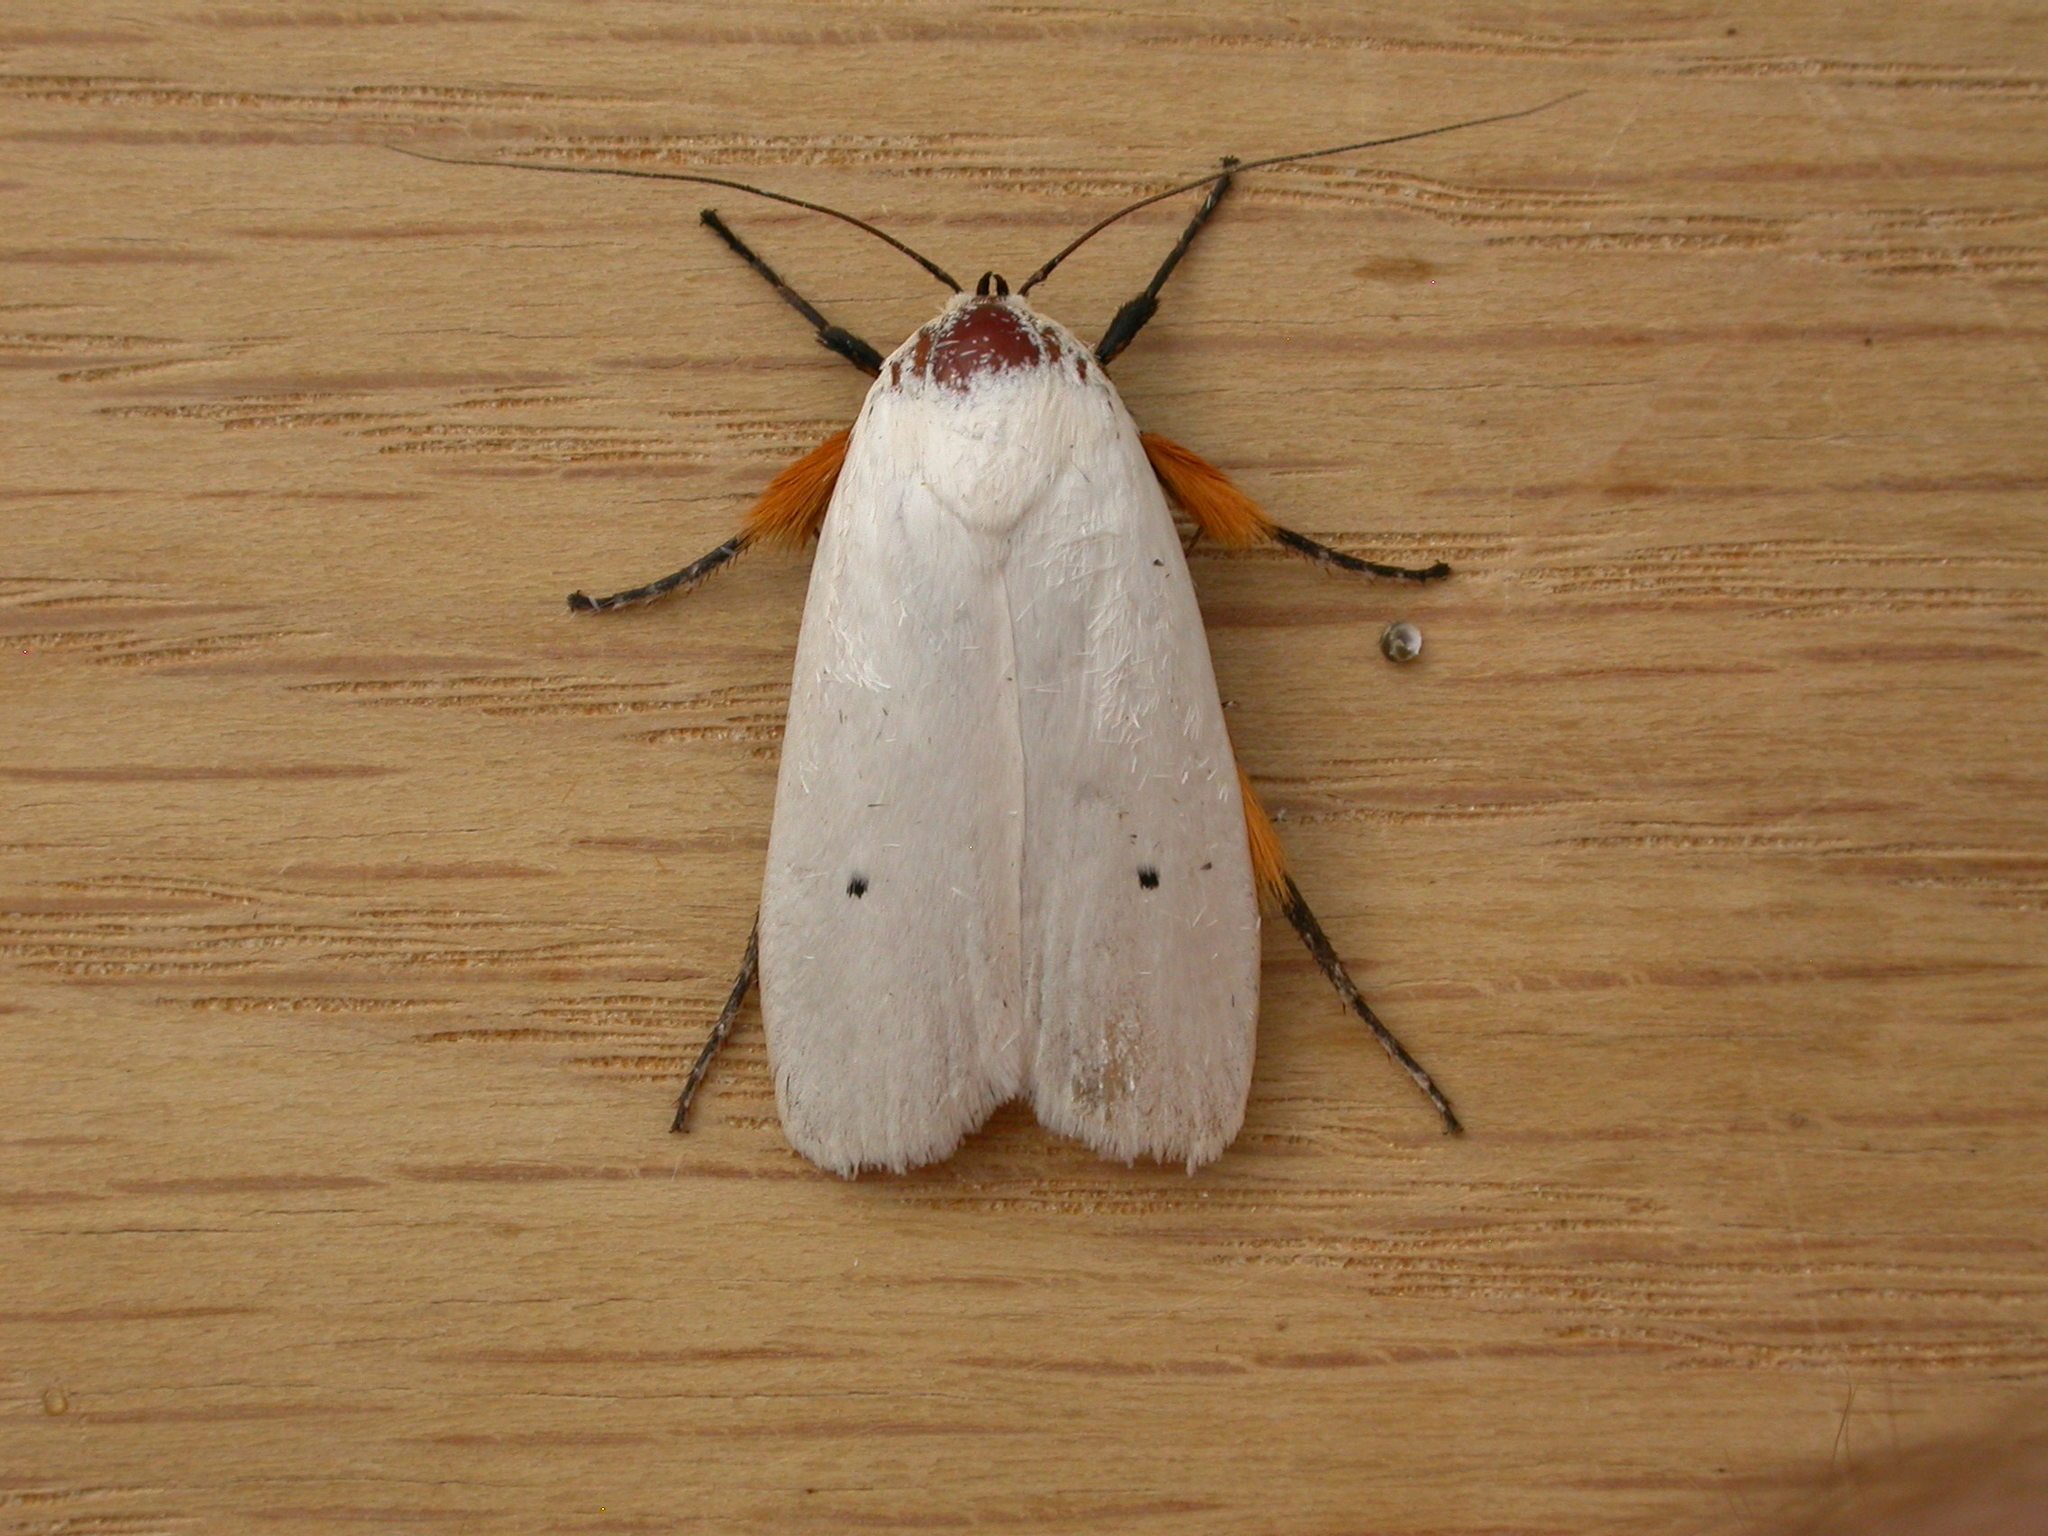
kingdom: Animalia
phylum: Arthropoda
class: Insecta
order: Lepidoptera
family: Xyloryctidae
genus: Maroga
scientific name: Maroga melanostigma
